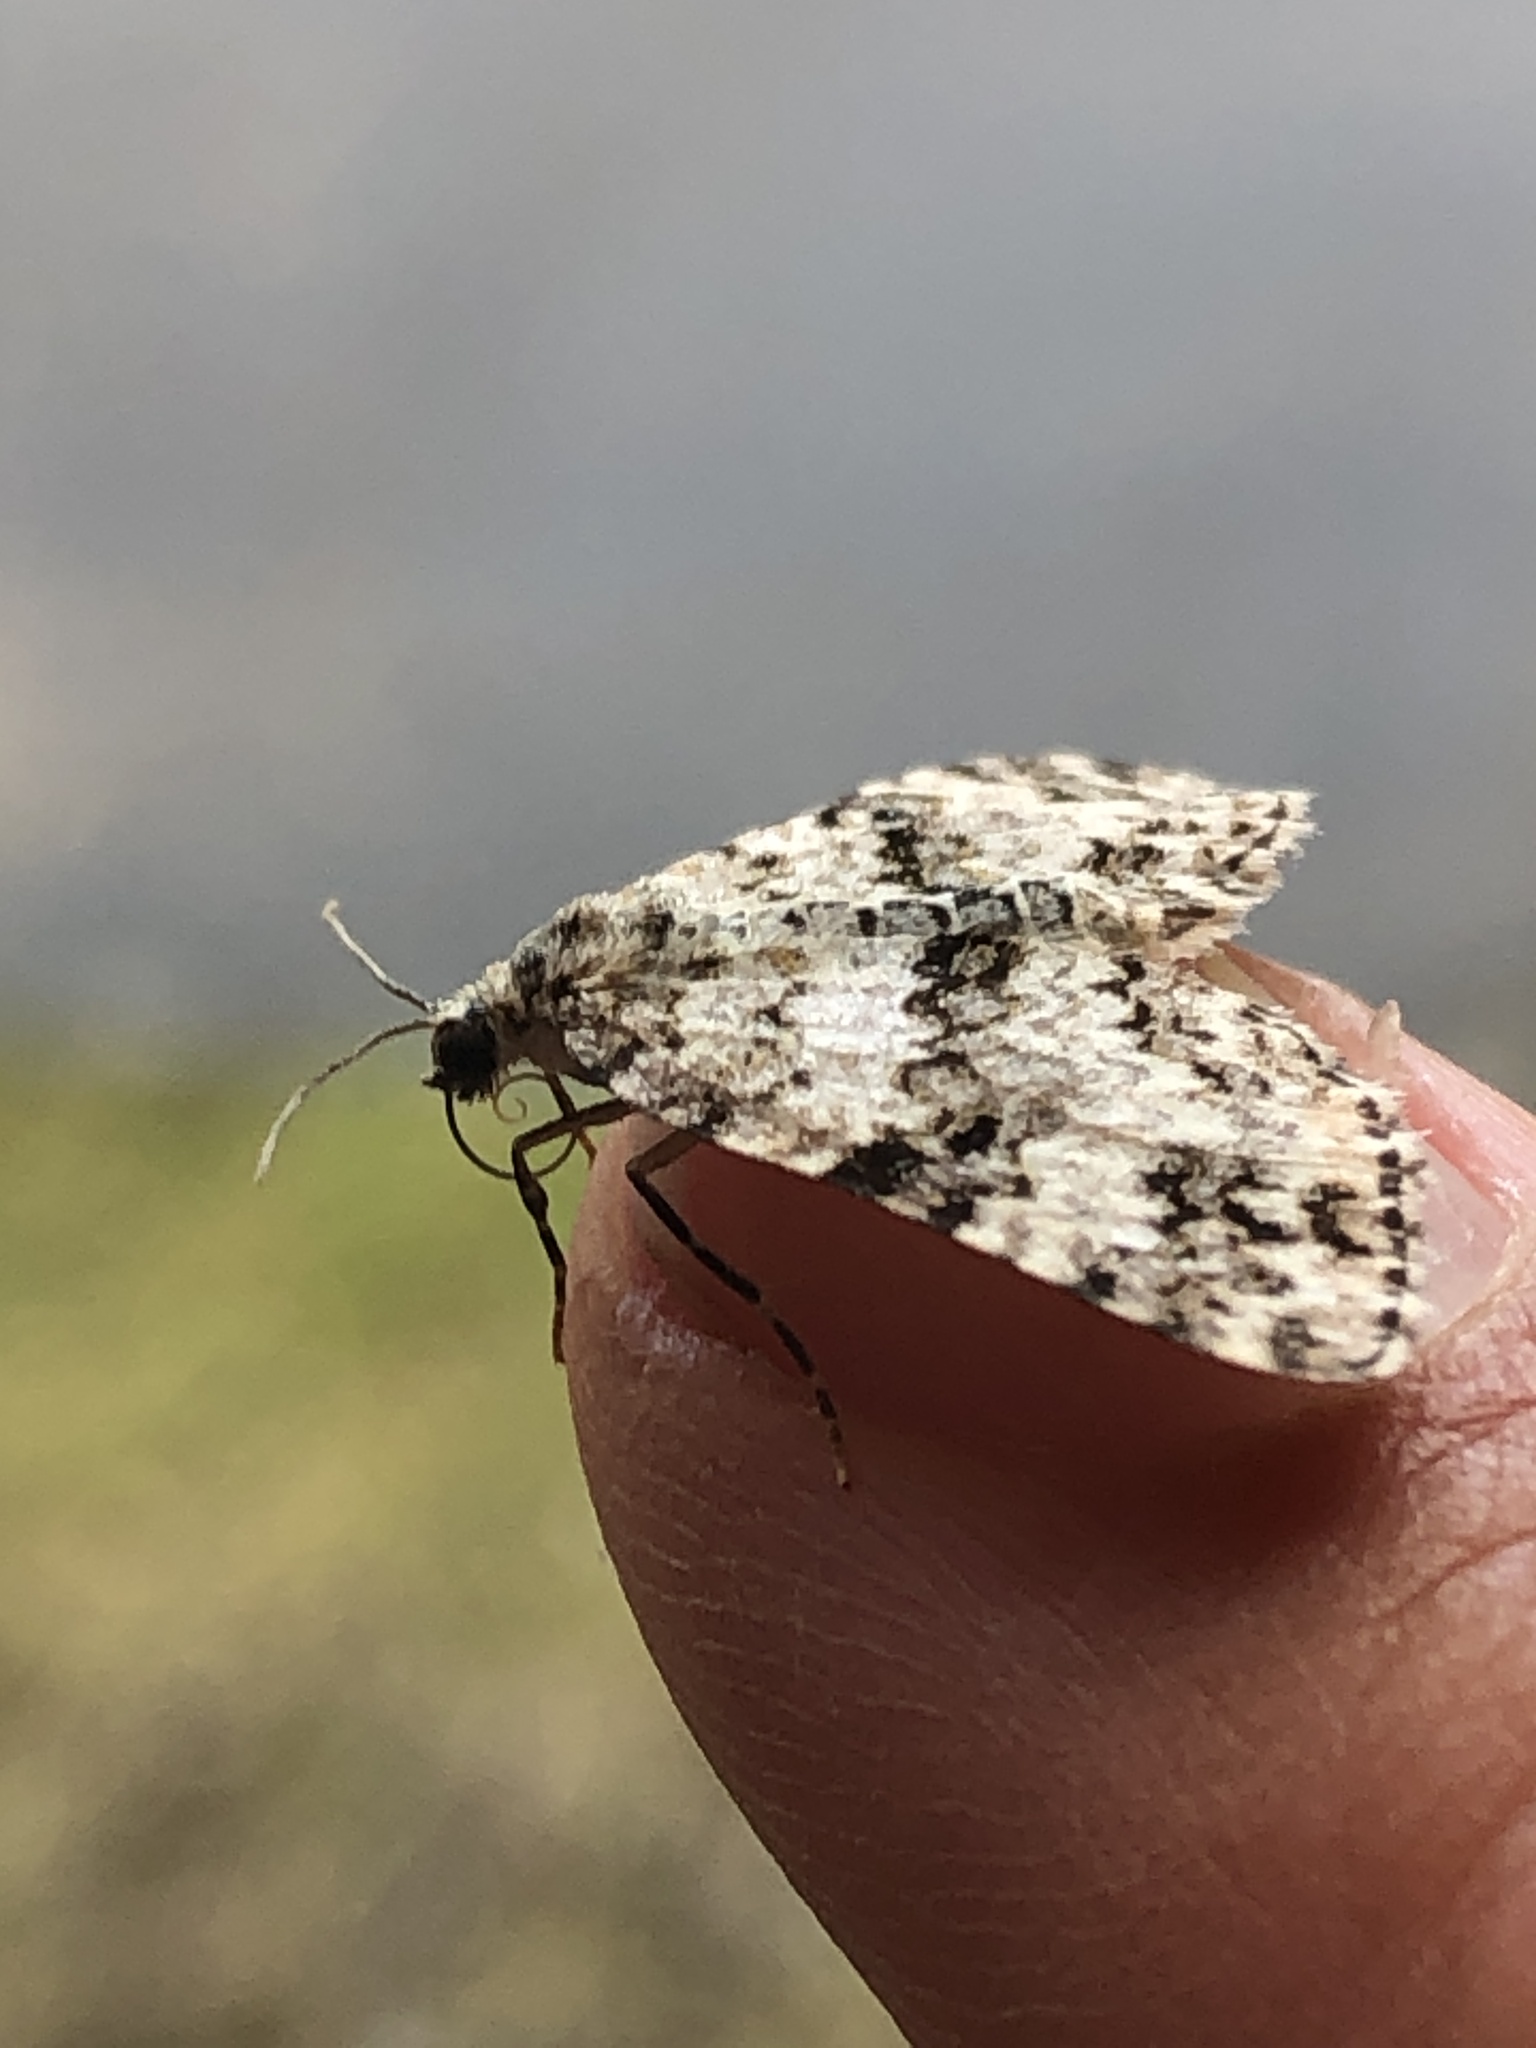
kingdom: Animalia
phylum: Arthropoda
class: Insecta
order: Lepidoptera
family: Geometridae
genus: Spargania
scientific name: Spargania magnoliata
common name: Double-banded carpet
